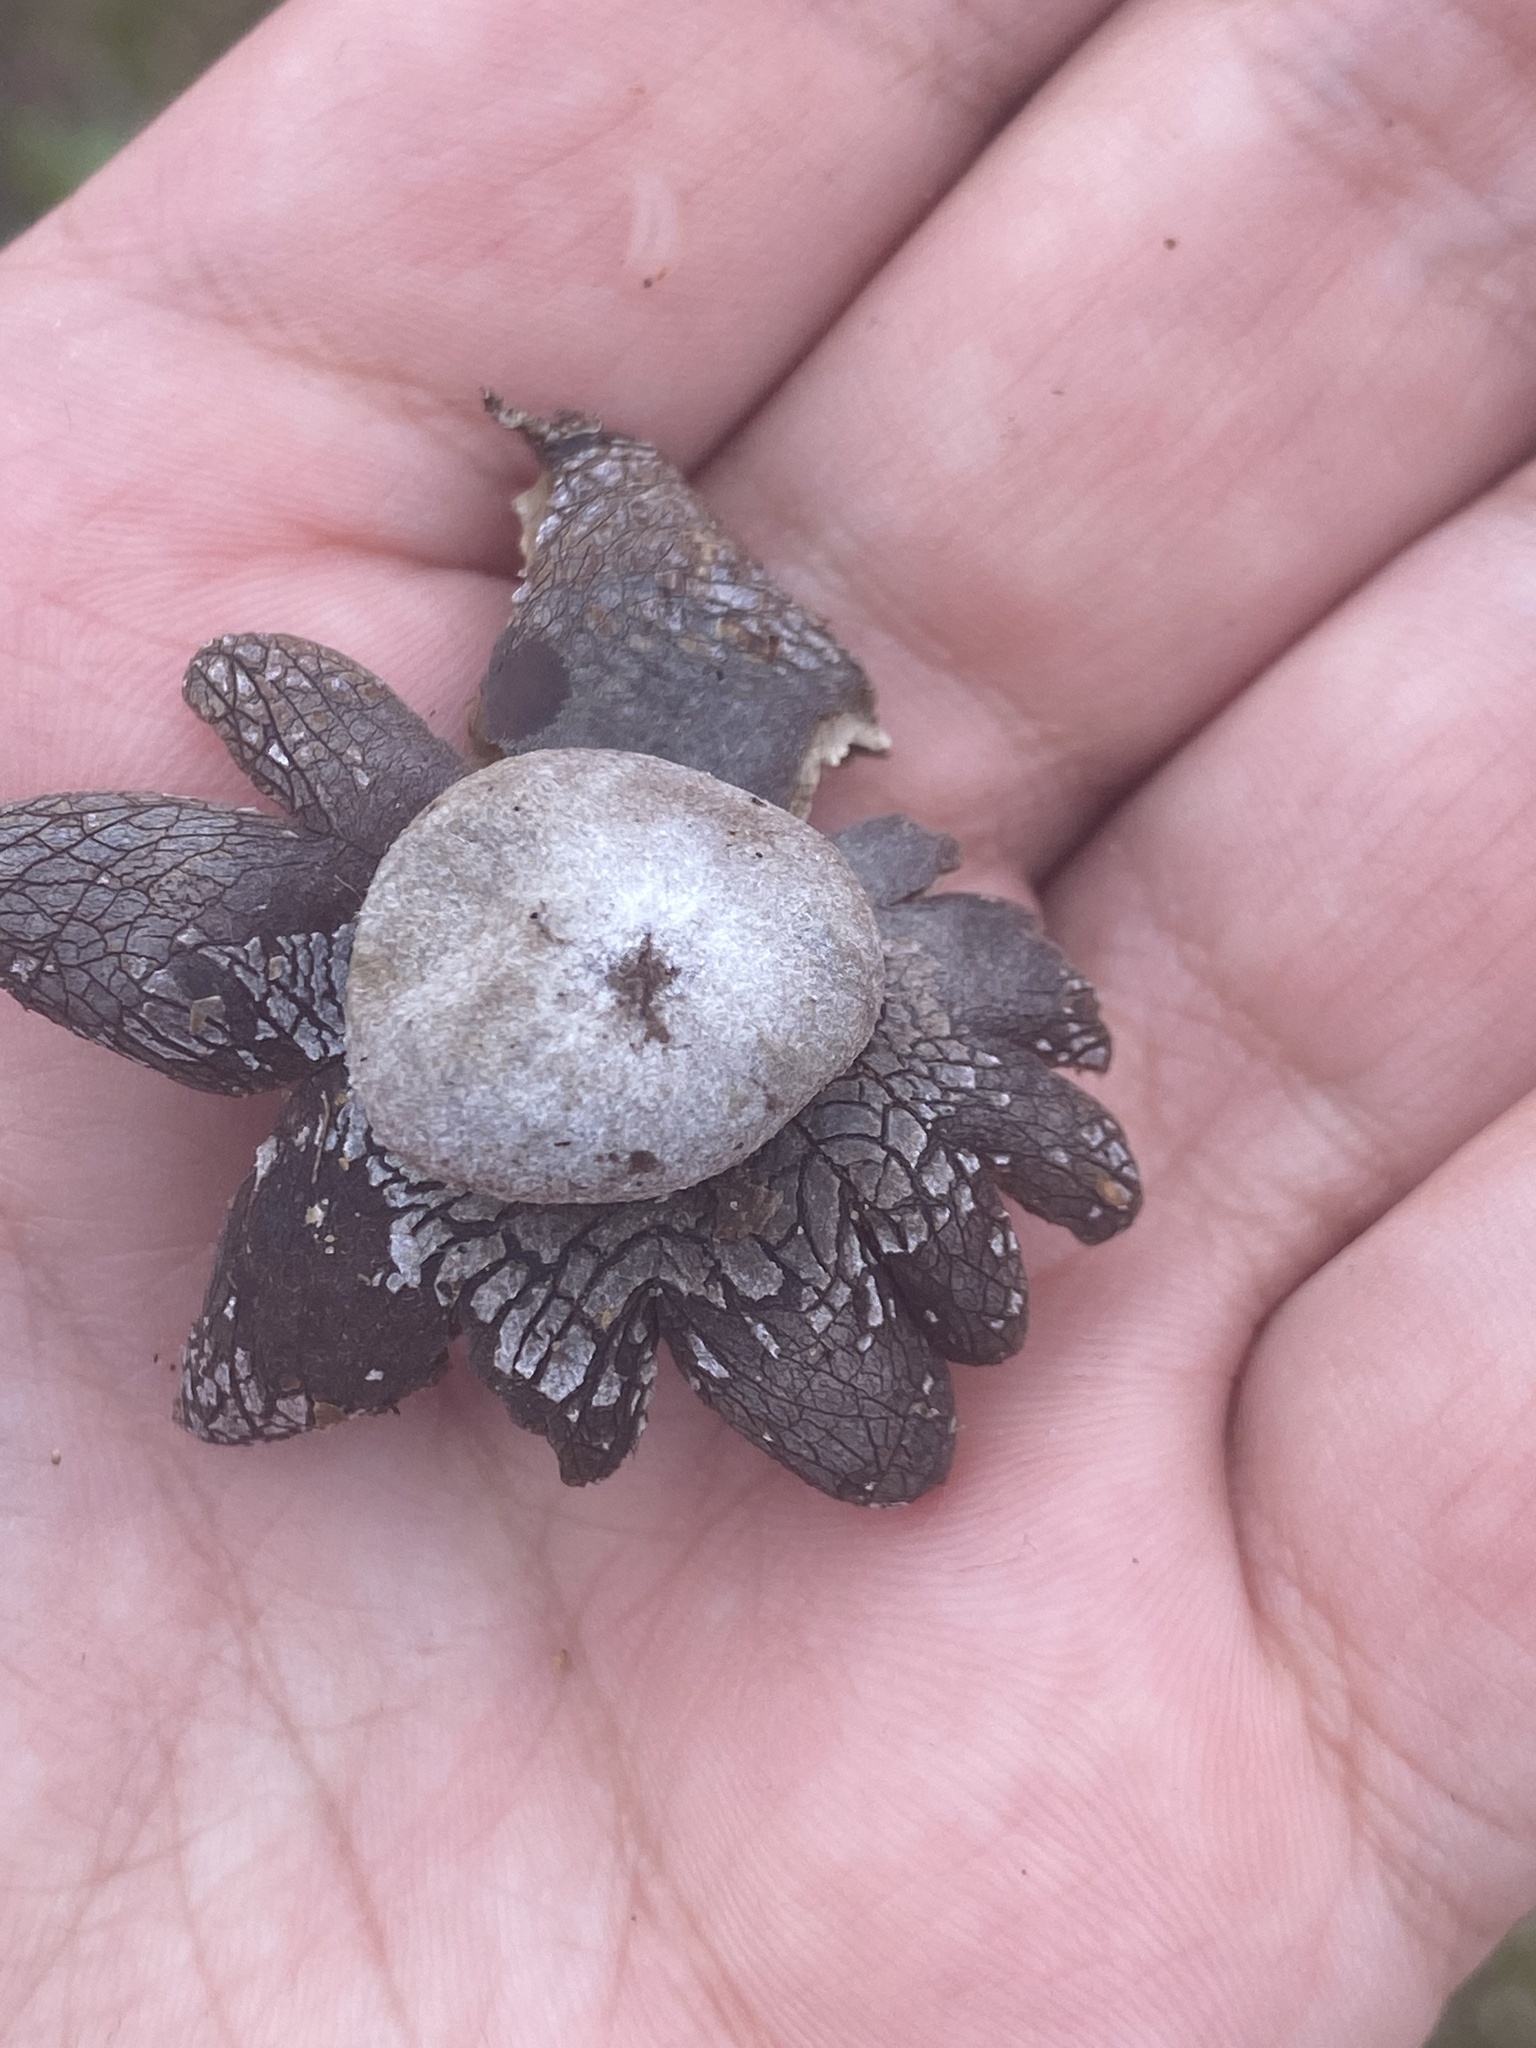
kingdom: Fungi
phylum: Basidiomycota
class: Agaricomycetes
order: Boletales
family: Diplocystidiaceae
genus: Astraeus
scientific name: Astraeus hygrometricus
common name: Barometer earthstar
